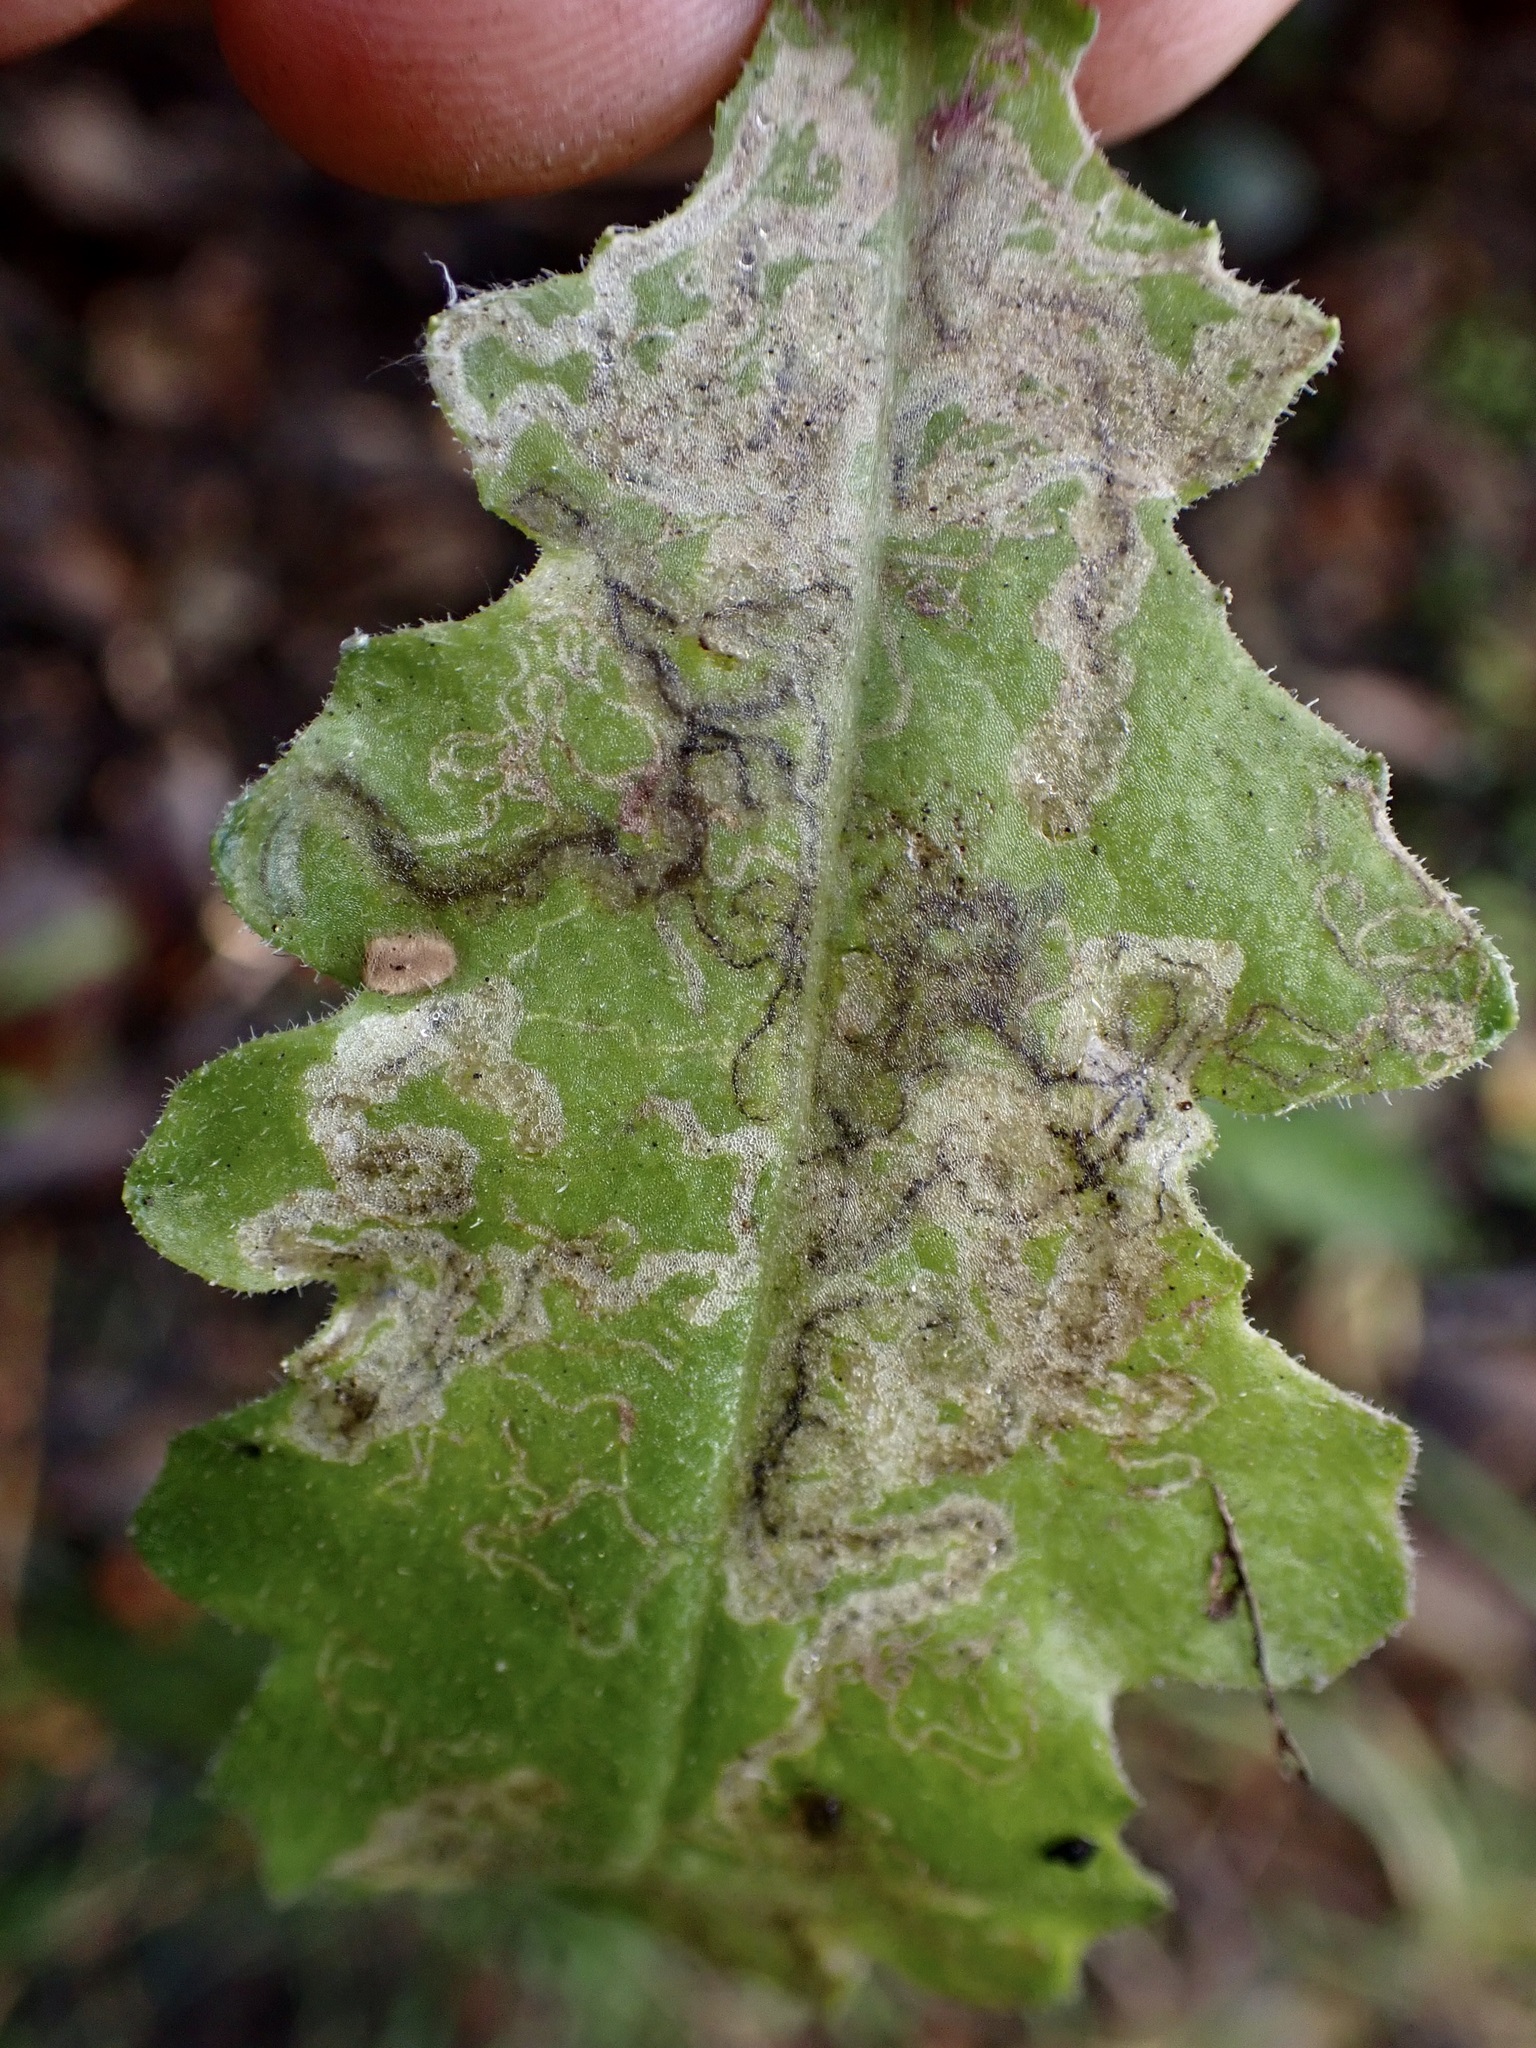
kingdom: Animalia
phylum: Arthropoda
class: Insecta
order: Lepidoptera
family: Nepticulidae
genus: Stigmella
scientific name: Stigmella ogygia
